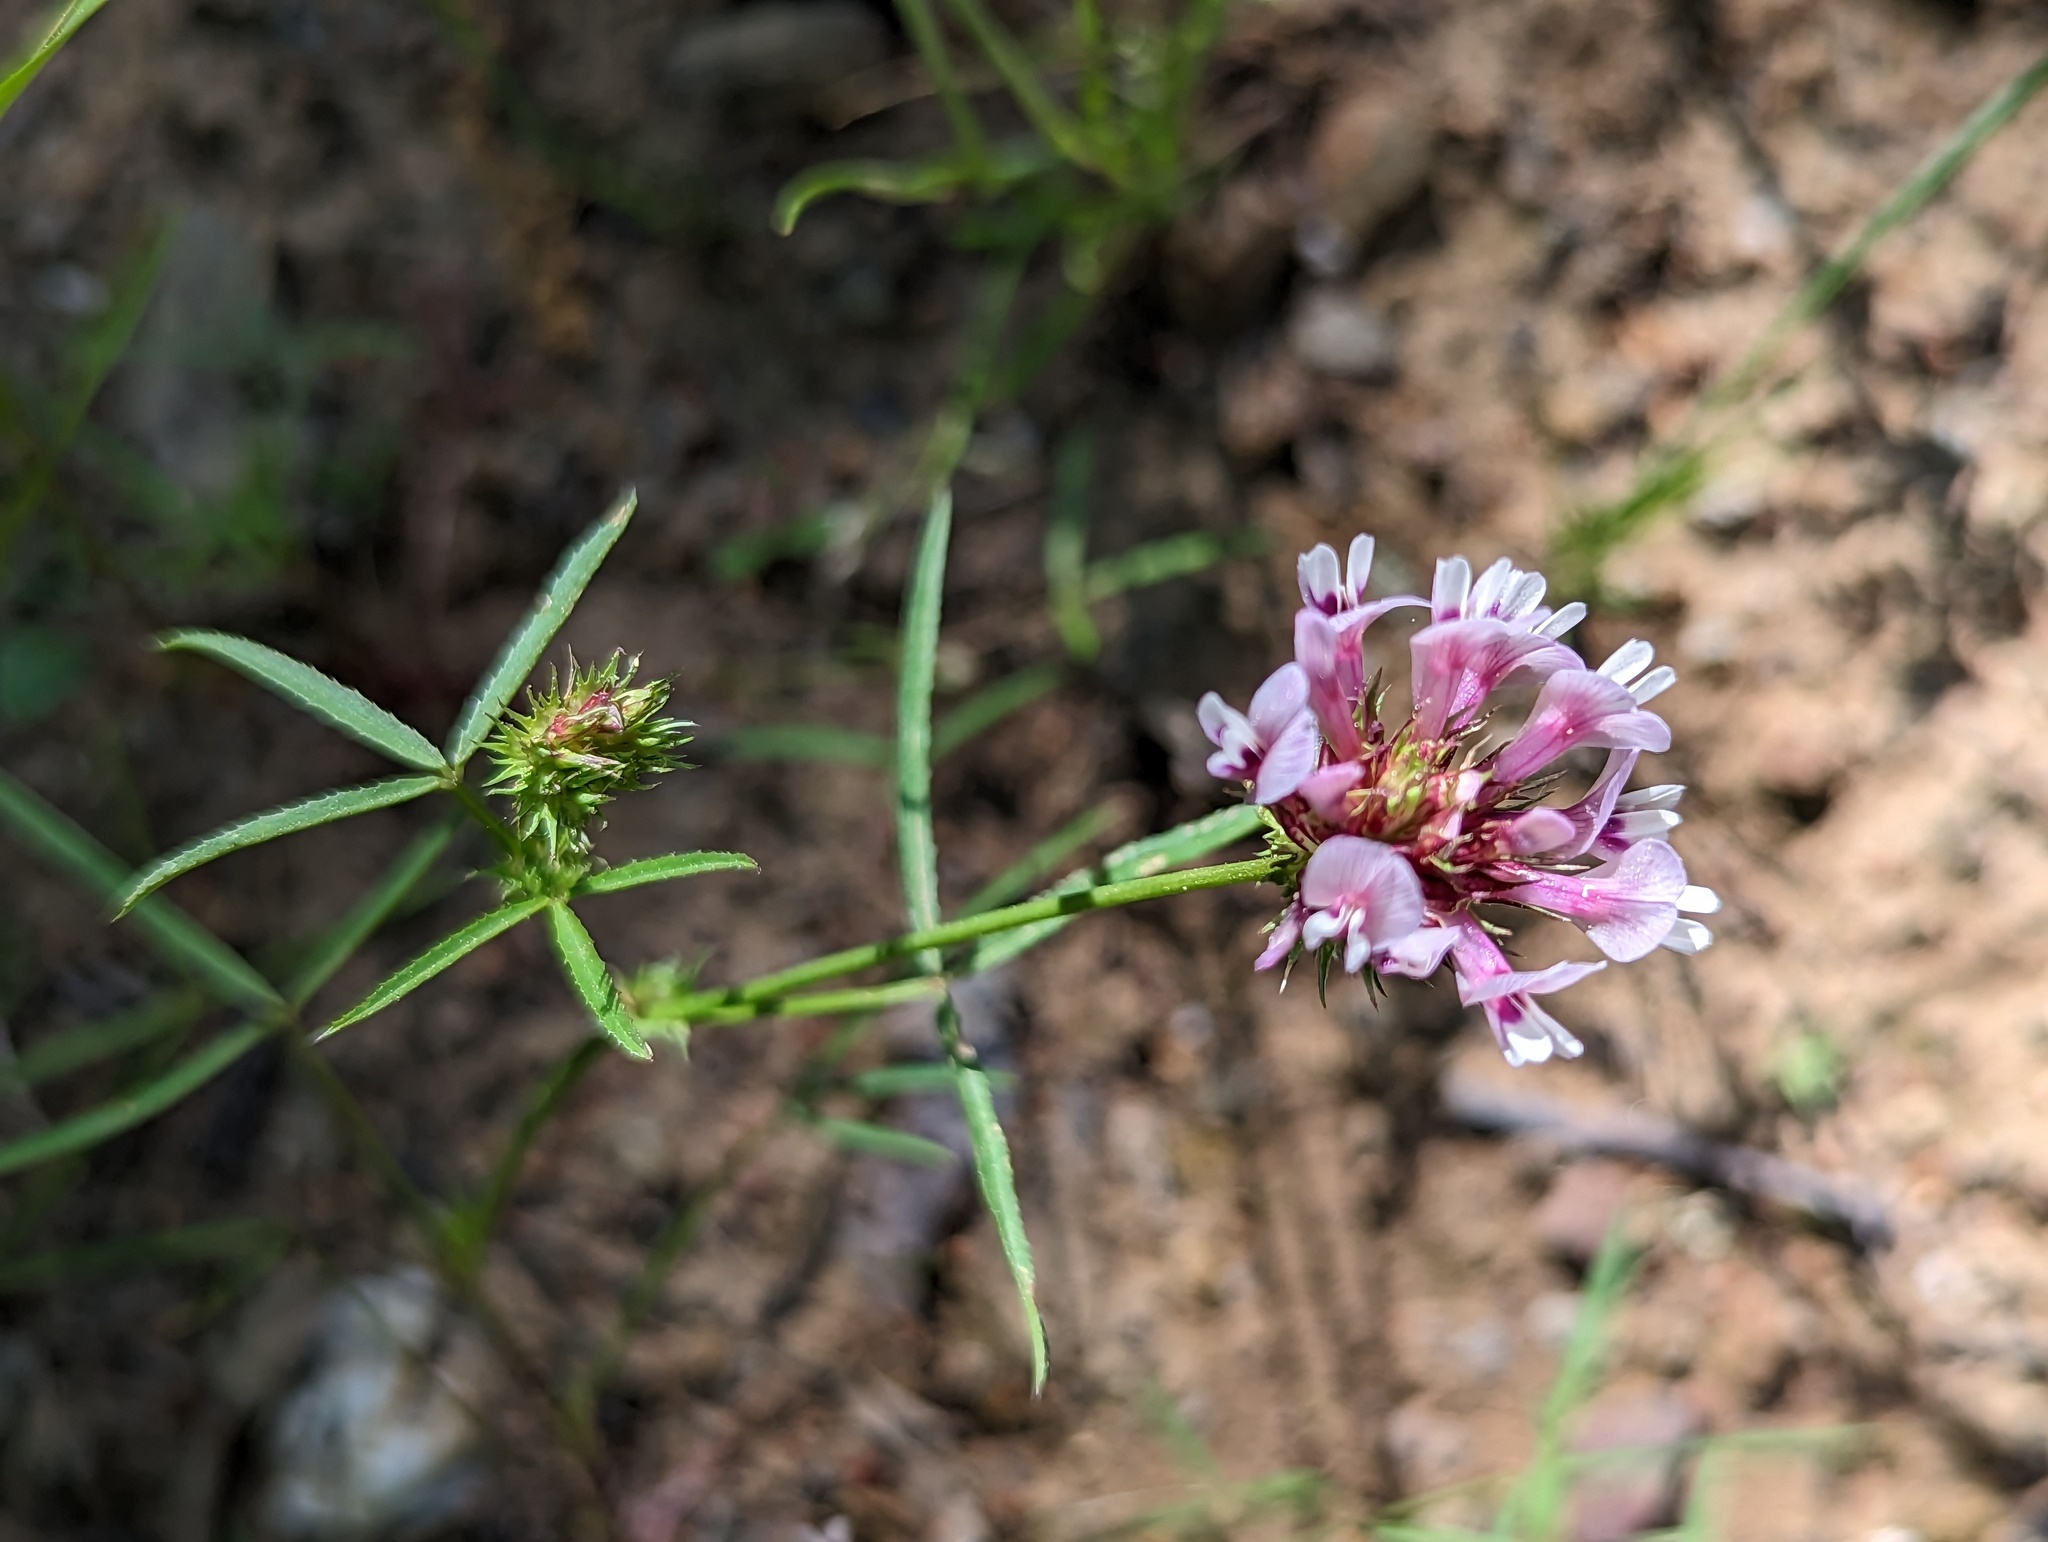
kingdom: Plantae
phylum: Tracheophyta
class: Magnoliopsida
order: Fabales
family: Fabaceae
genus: Trifolium
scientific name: Trifolium willdenovii
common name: Tomcat clover
